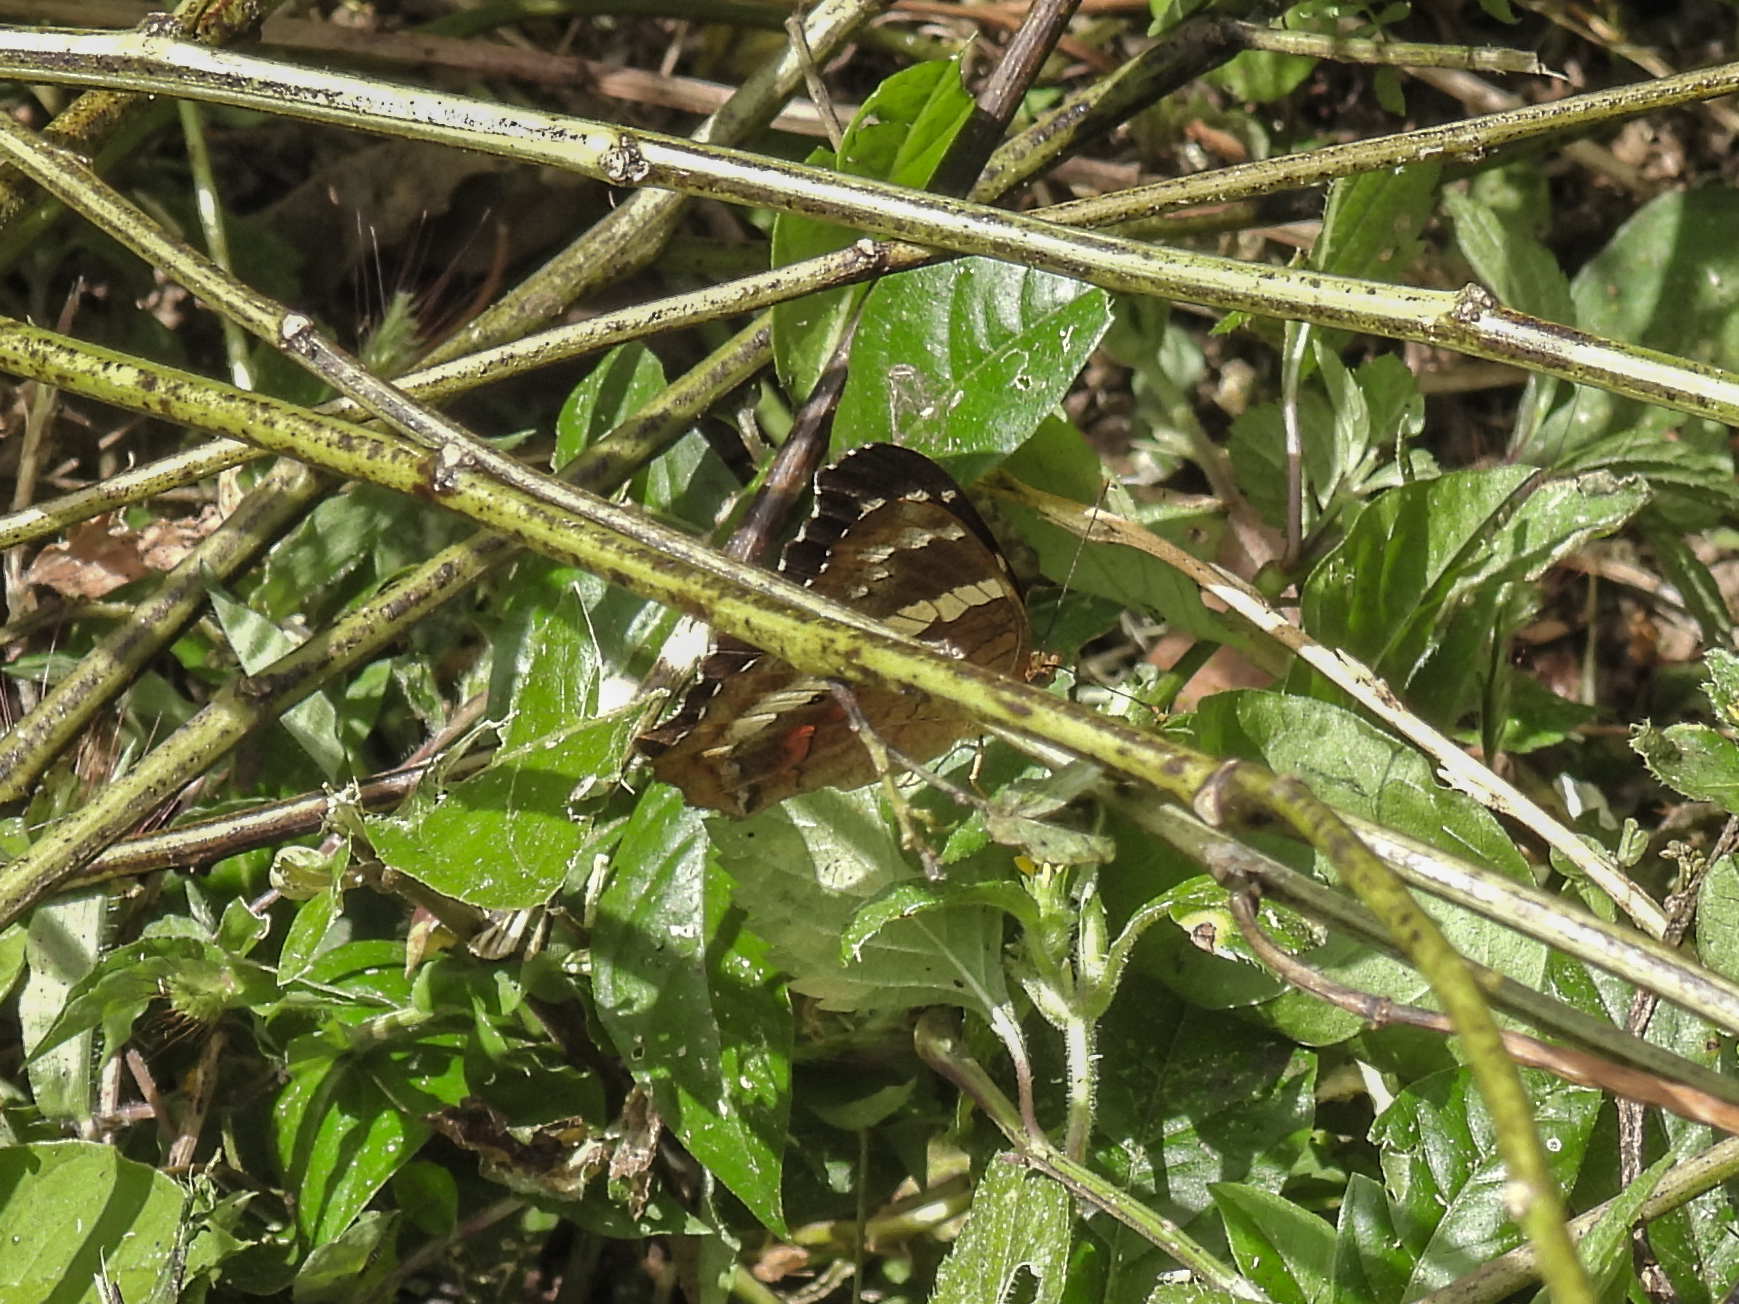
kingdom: Animalia
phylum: Arthropoda
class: Insecta
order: Lepidoptera
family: Nymphalidae
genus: Anartia
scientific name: Anartia fatima
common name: Banded peacock
